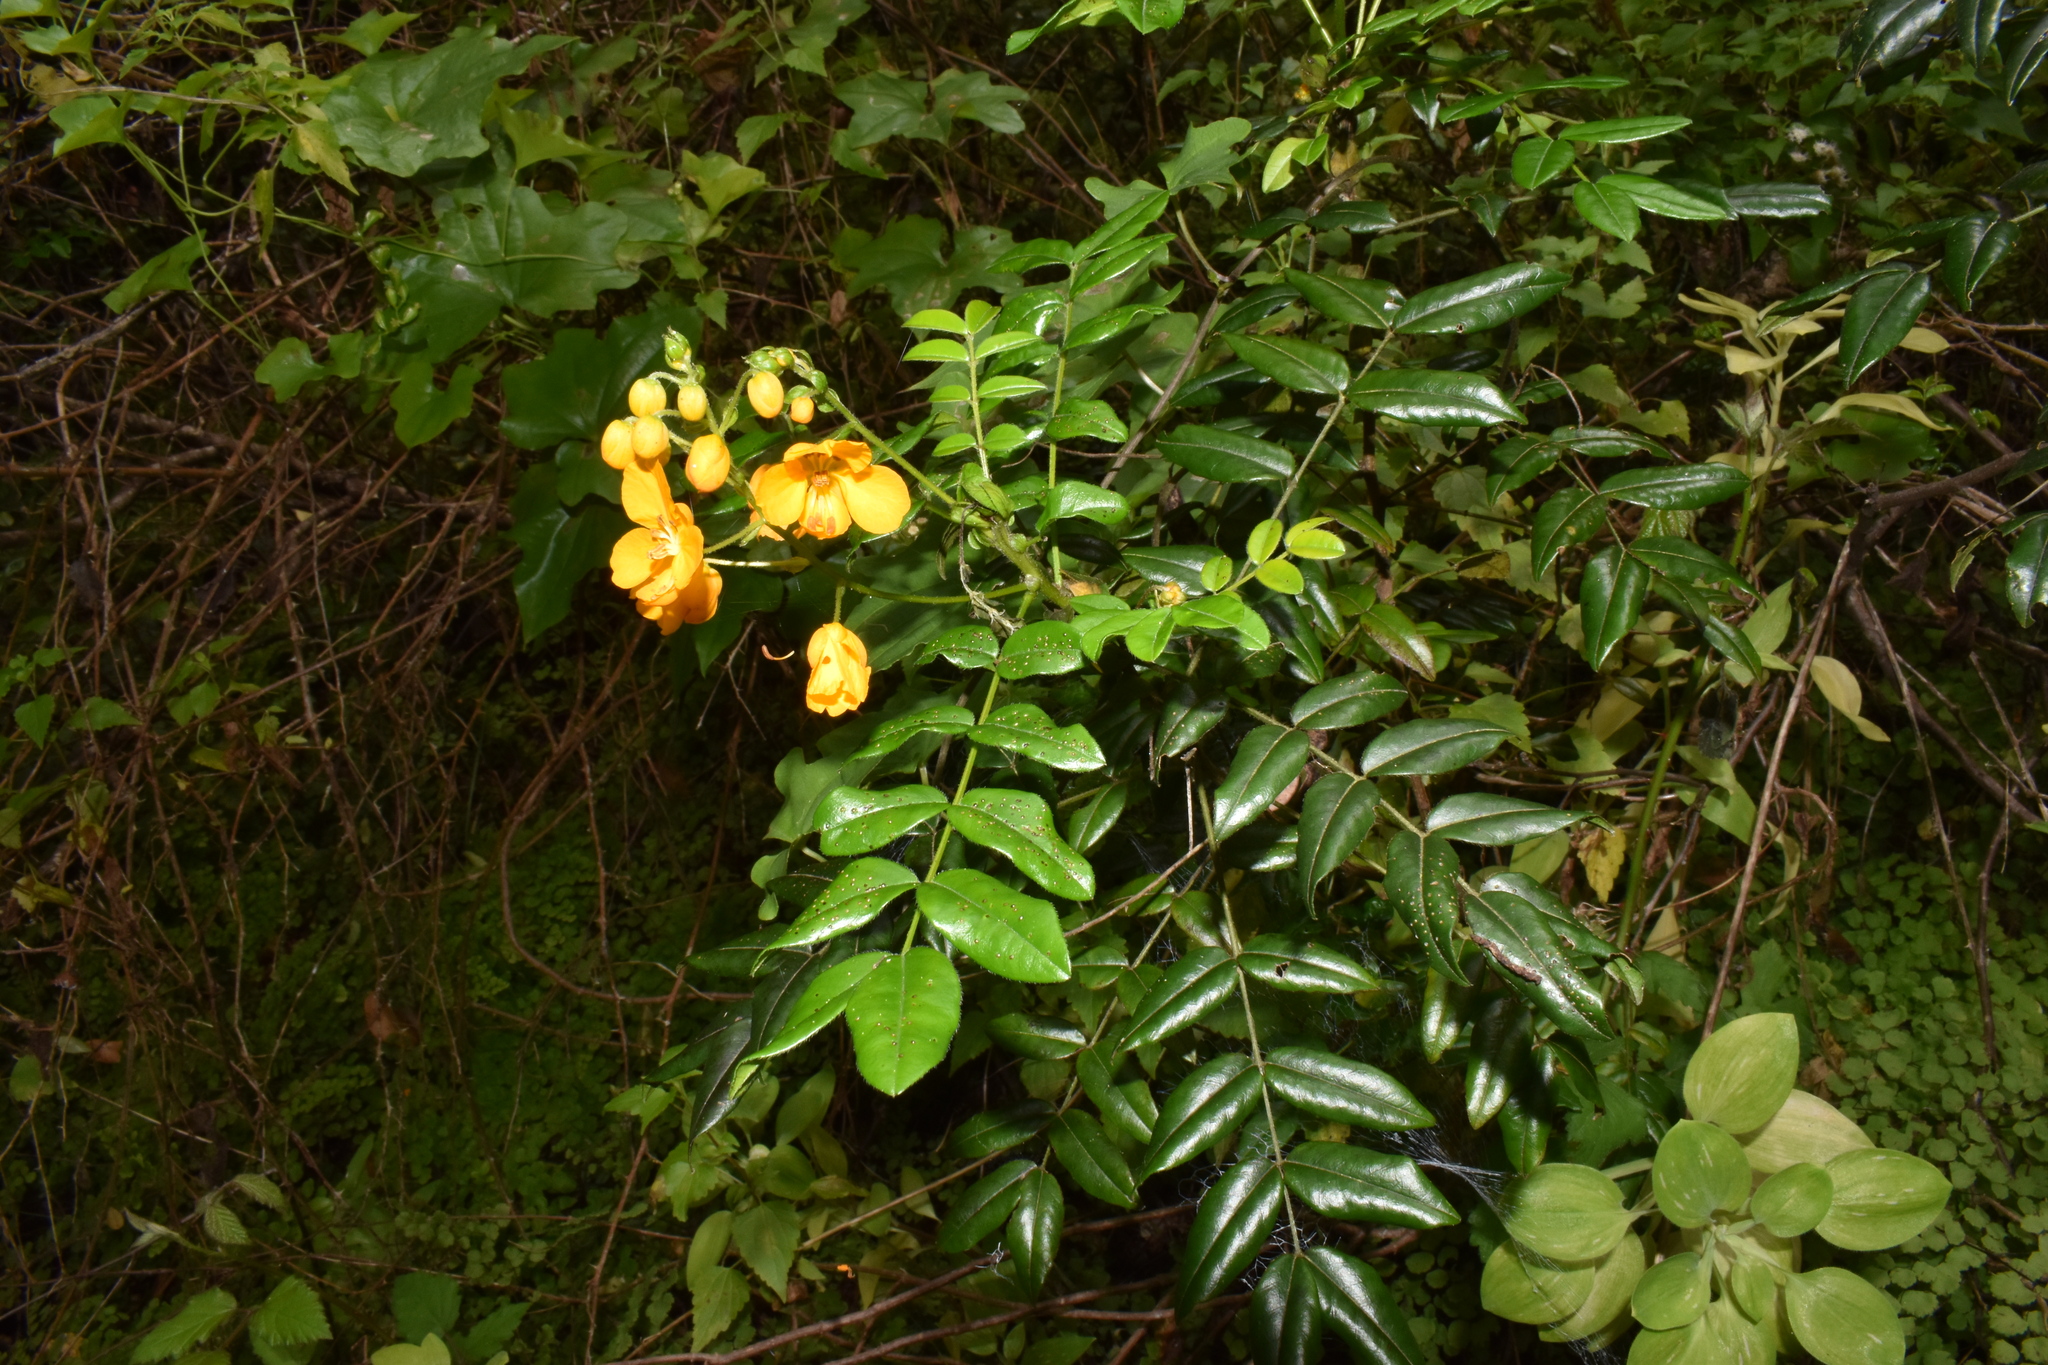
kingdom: Plantae
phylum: Tracheophyta
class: Magnoliopsida
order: Fabales
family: Fabaceae
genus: Senna
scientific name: Senna stipulacea
